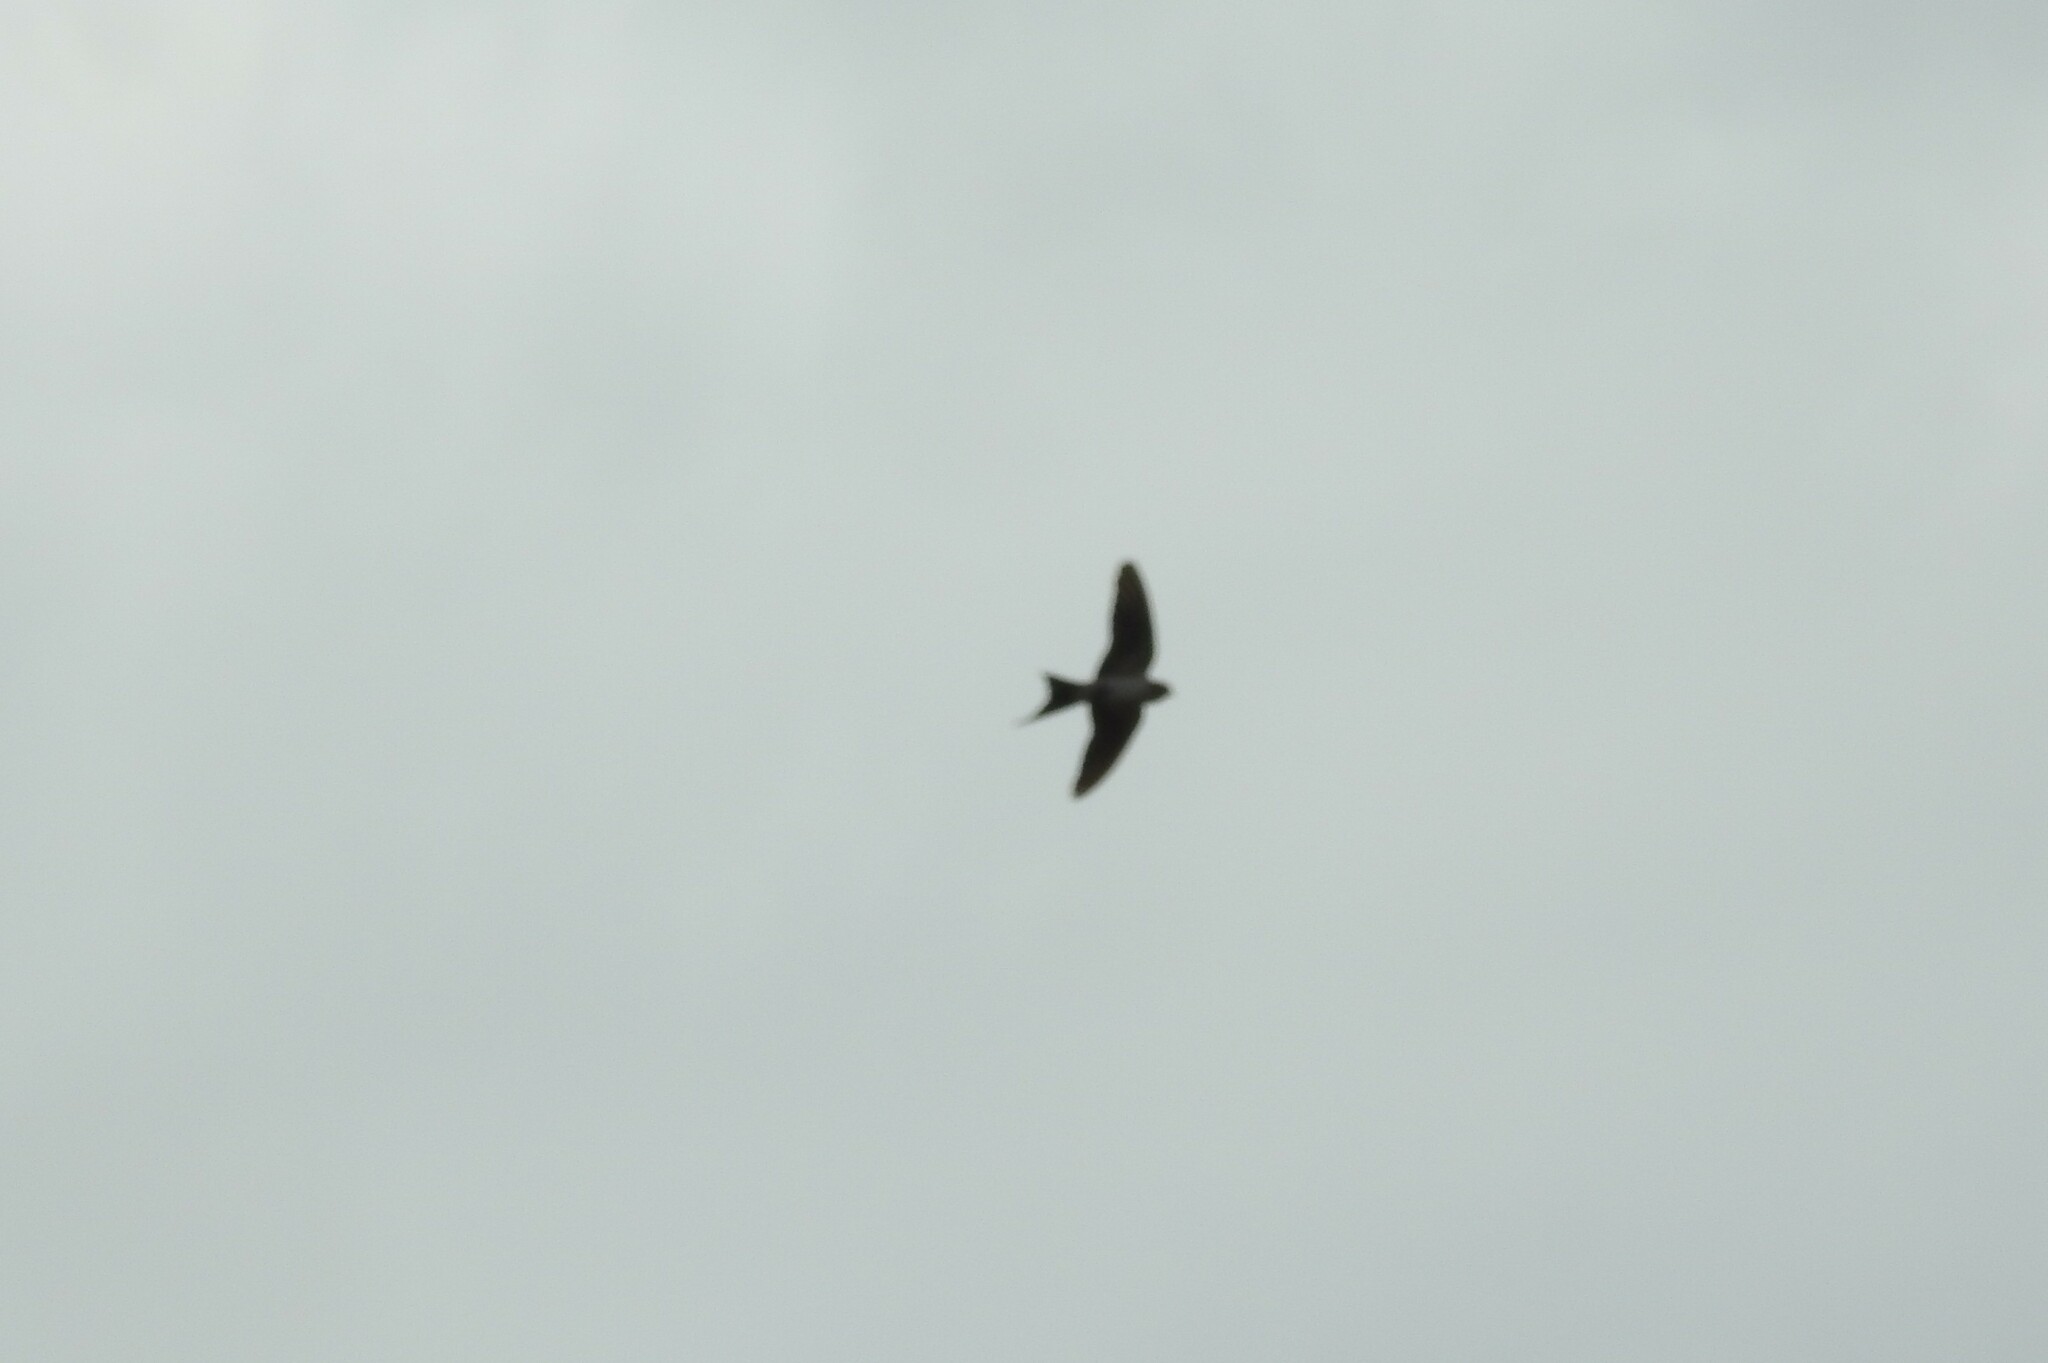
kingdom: Animalia
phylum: Chordata
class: Aves
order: Passeriformes
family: Hirundinidae
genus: Cecropis
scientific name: Cecropis daurica
